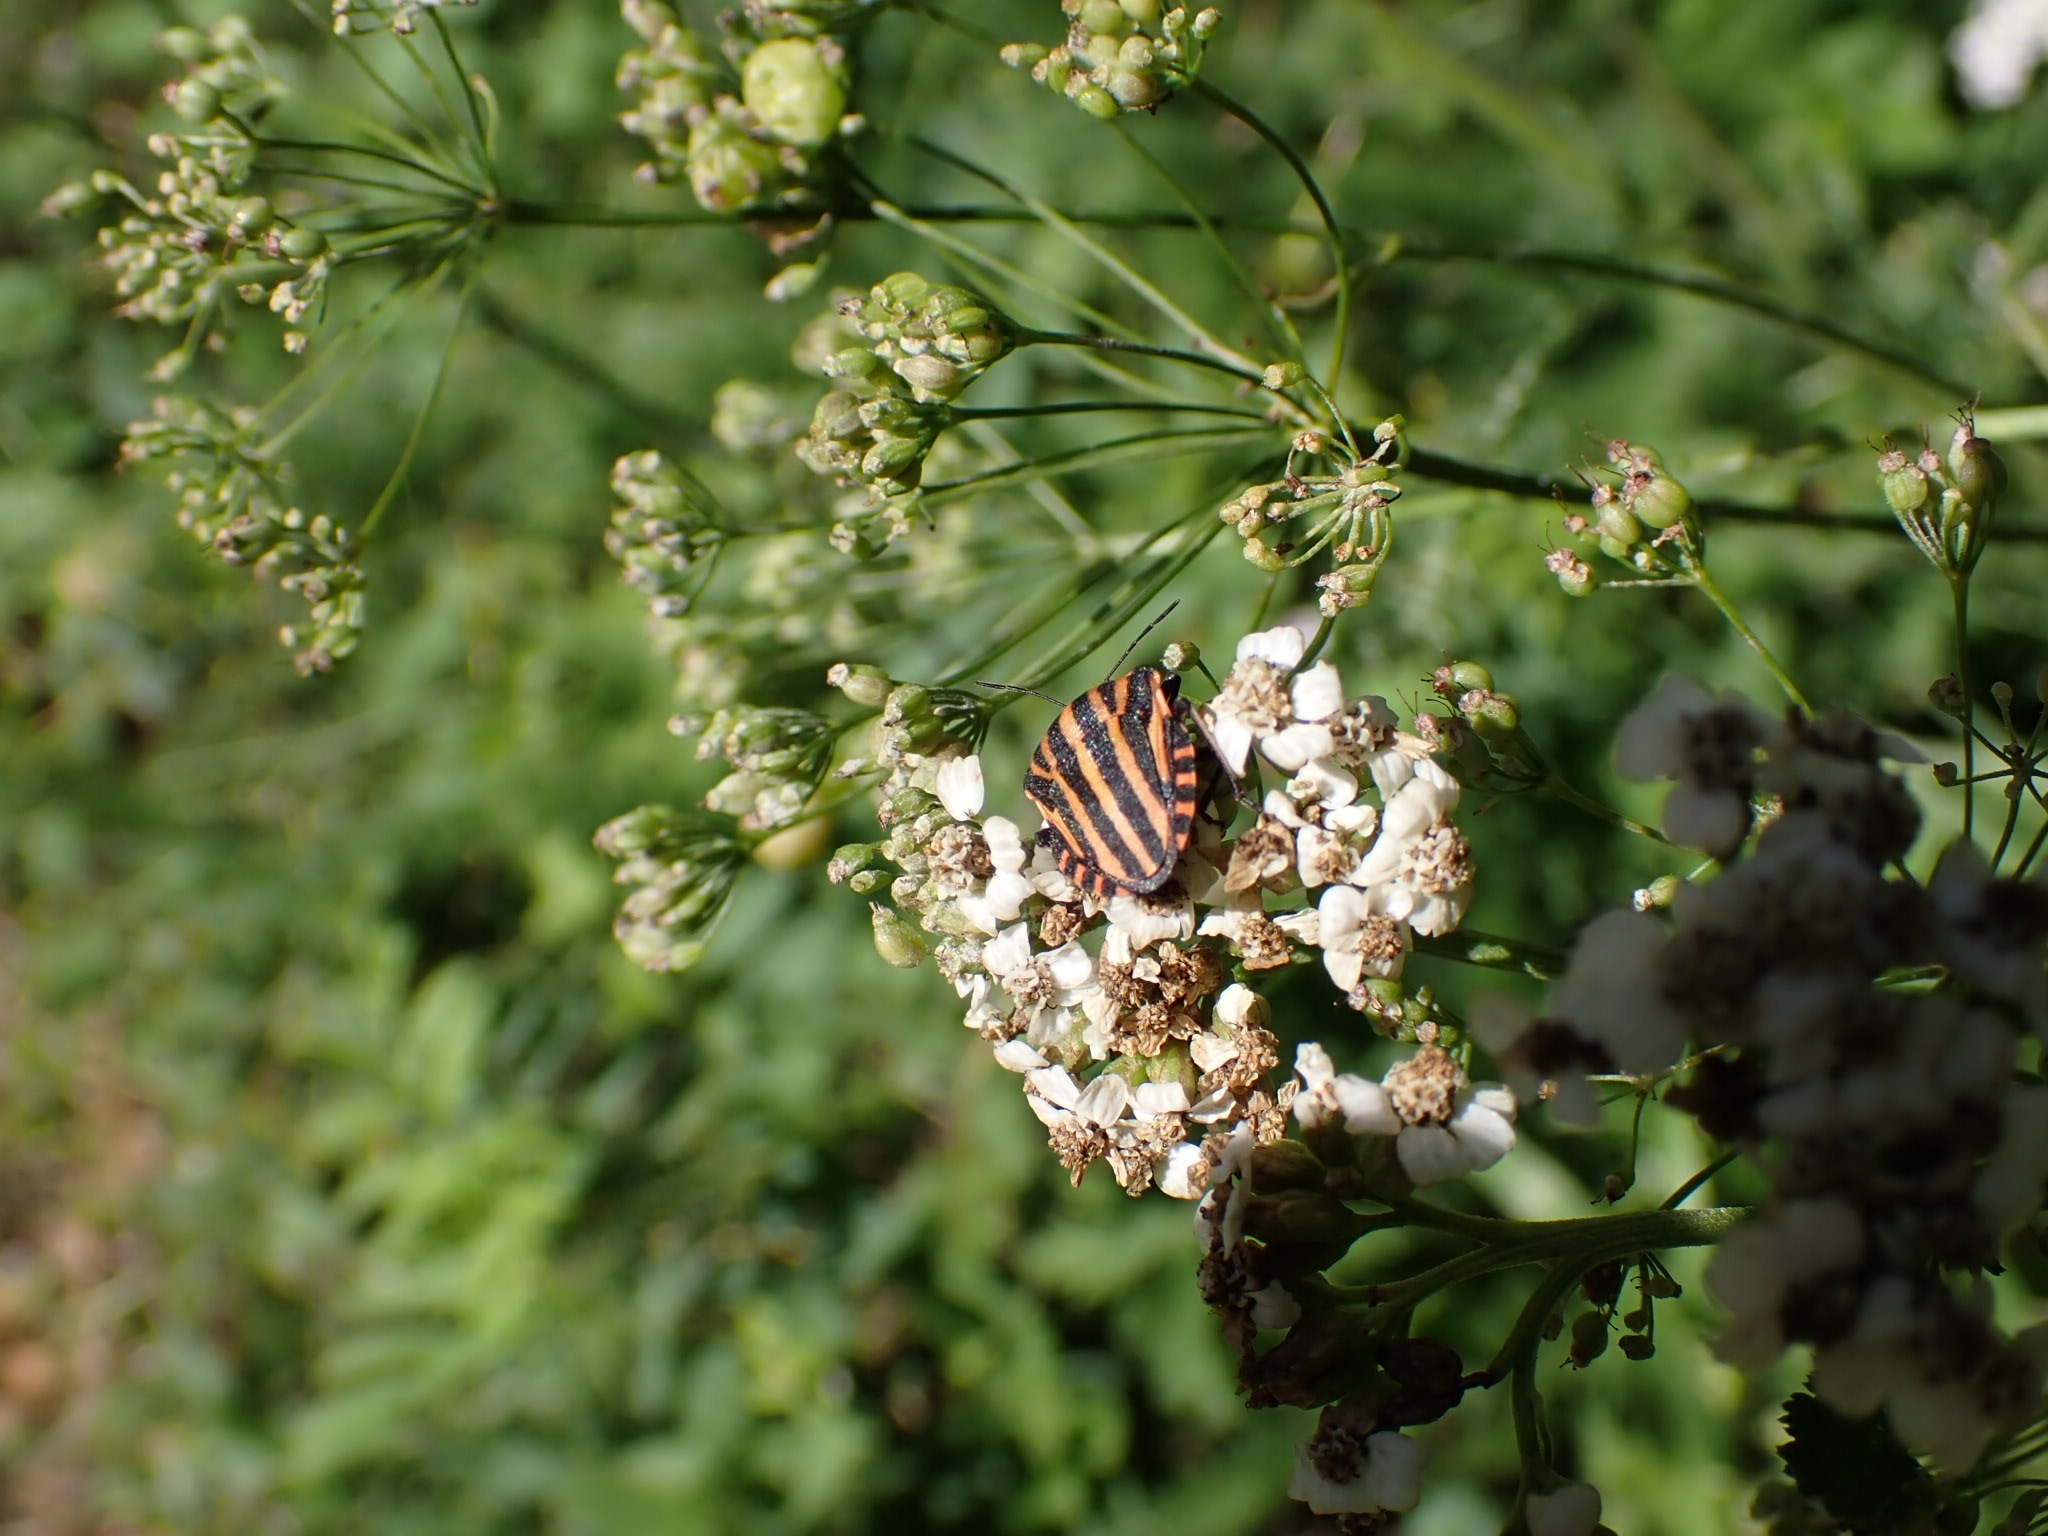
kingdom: Animalia
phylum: Arthropoda
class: Insecta
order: Hemiptera
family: Pentatomidae
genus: Graphosoma
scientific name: Graphosoma italicum
